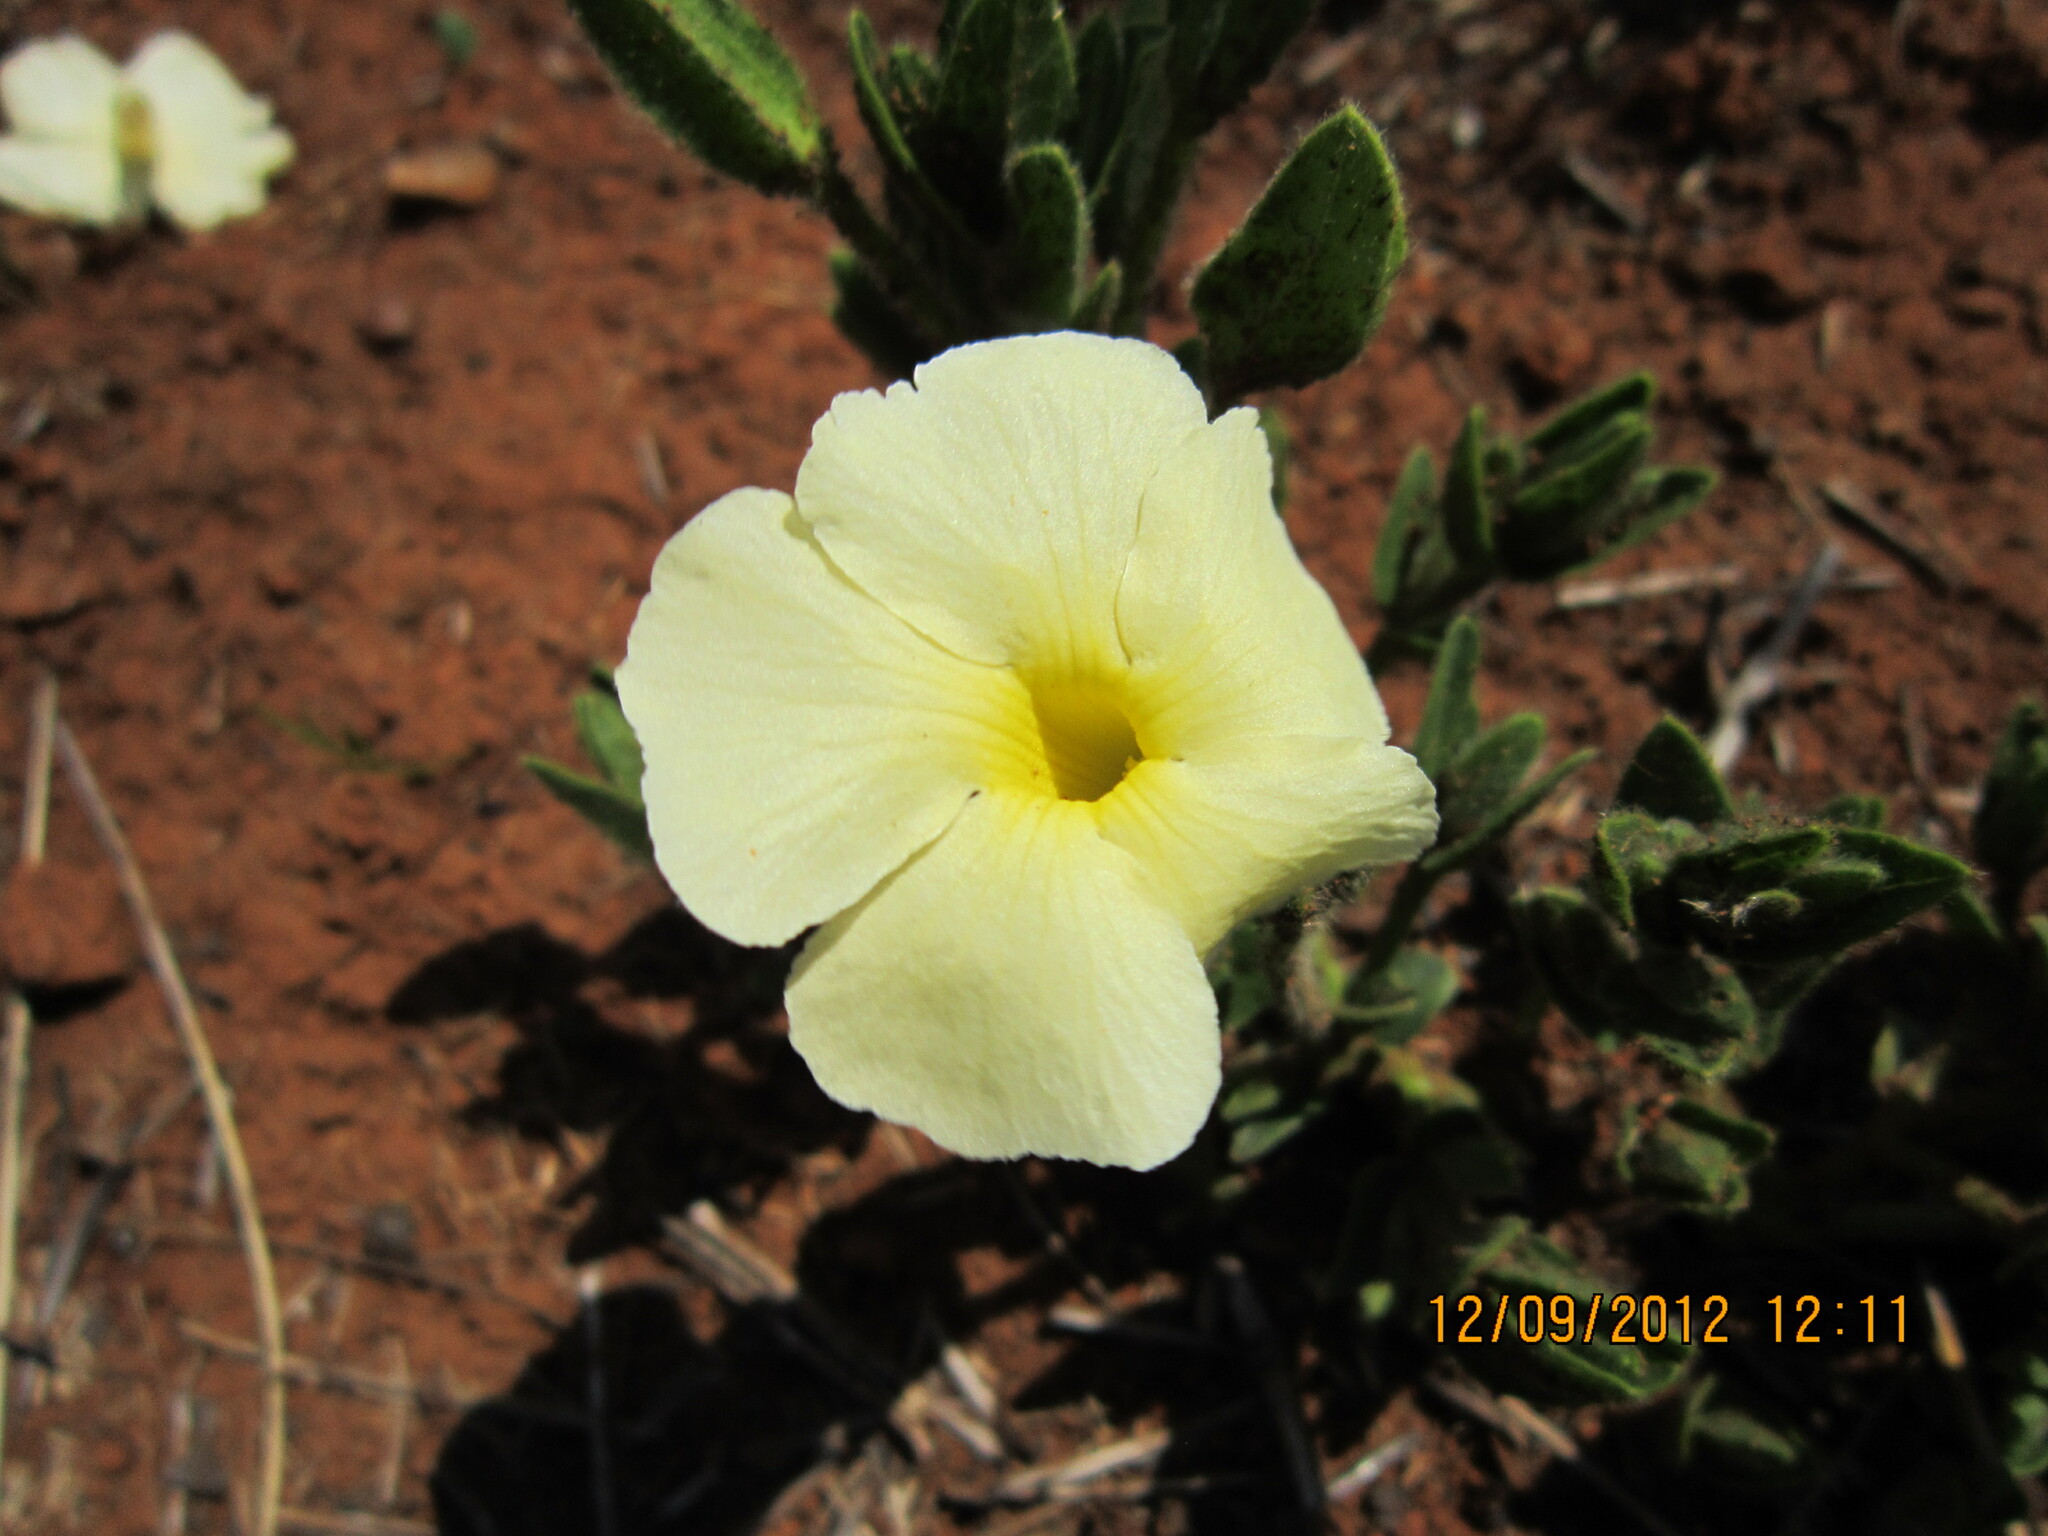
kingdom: Plantae
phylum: Tracheophyta
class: Magnoliopsida
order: Lamiales
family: Acanthaceae
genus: Thunbergia
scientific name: Thunbergia atriplicifolia
